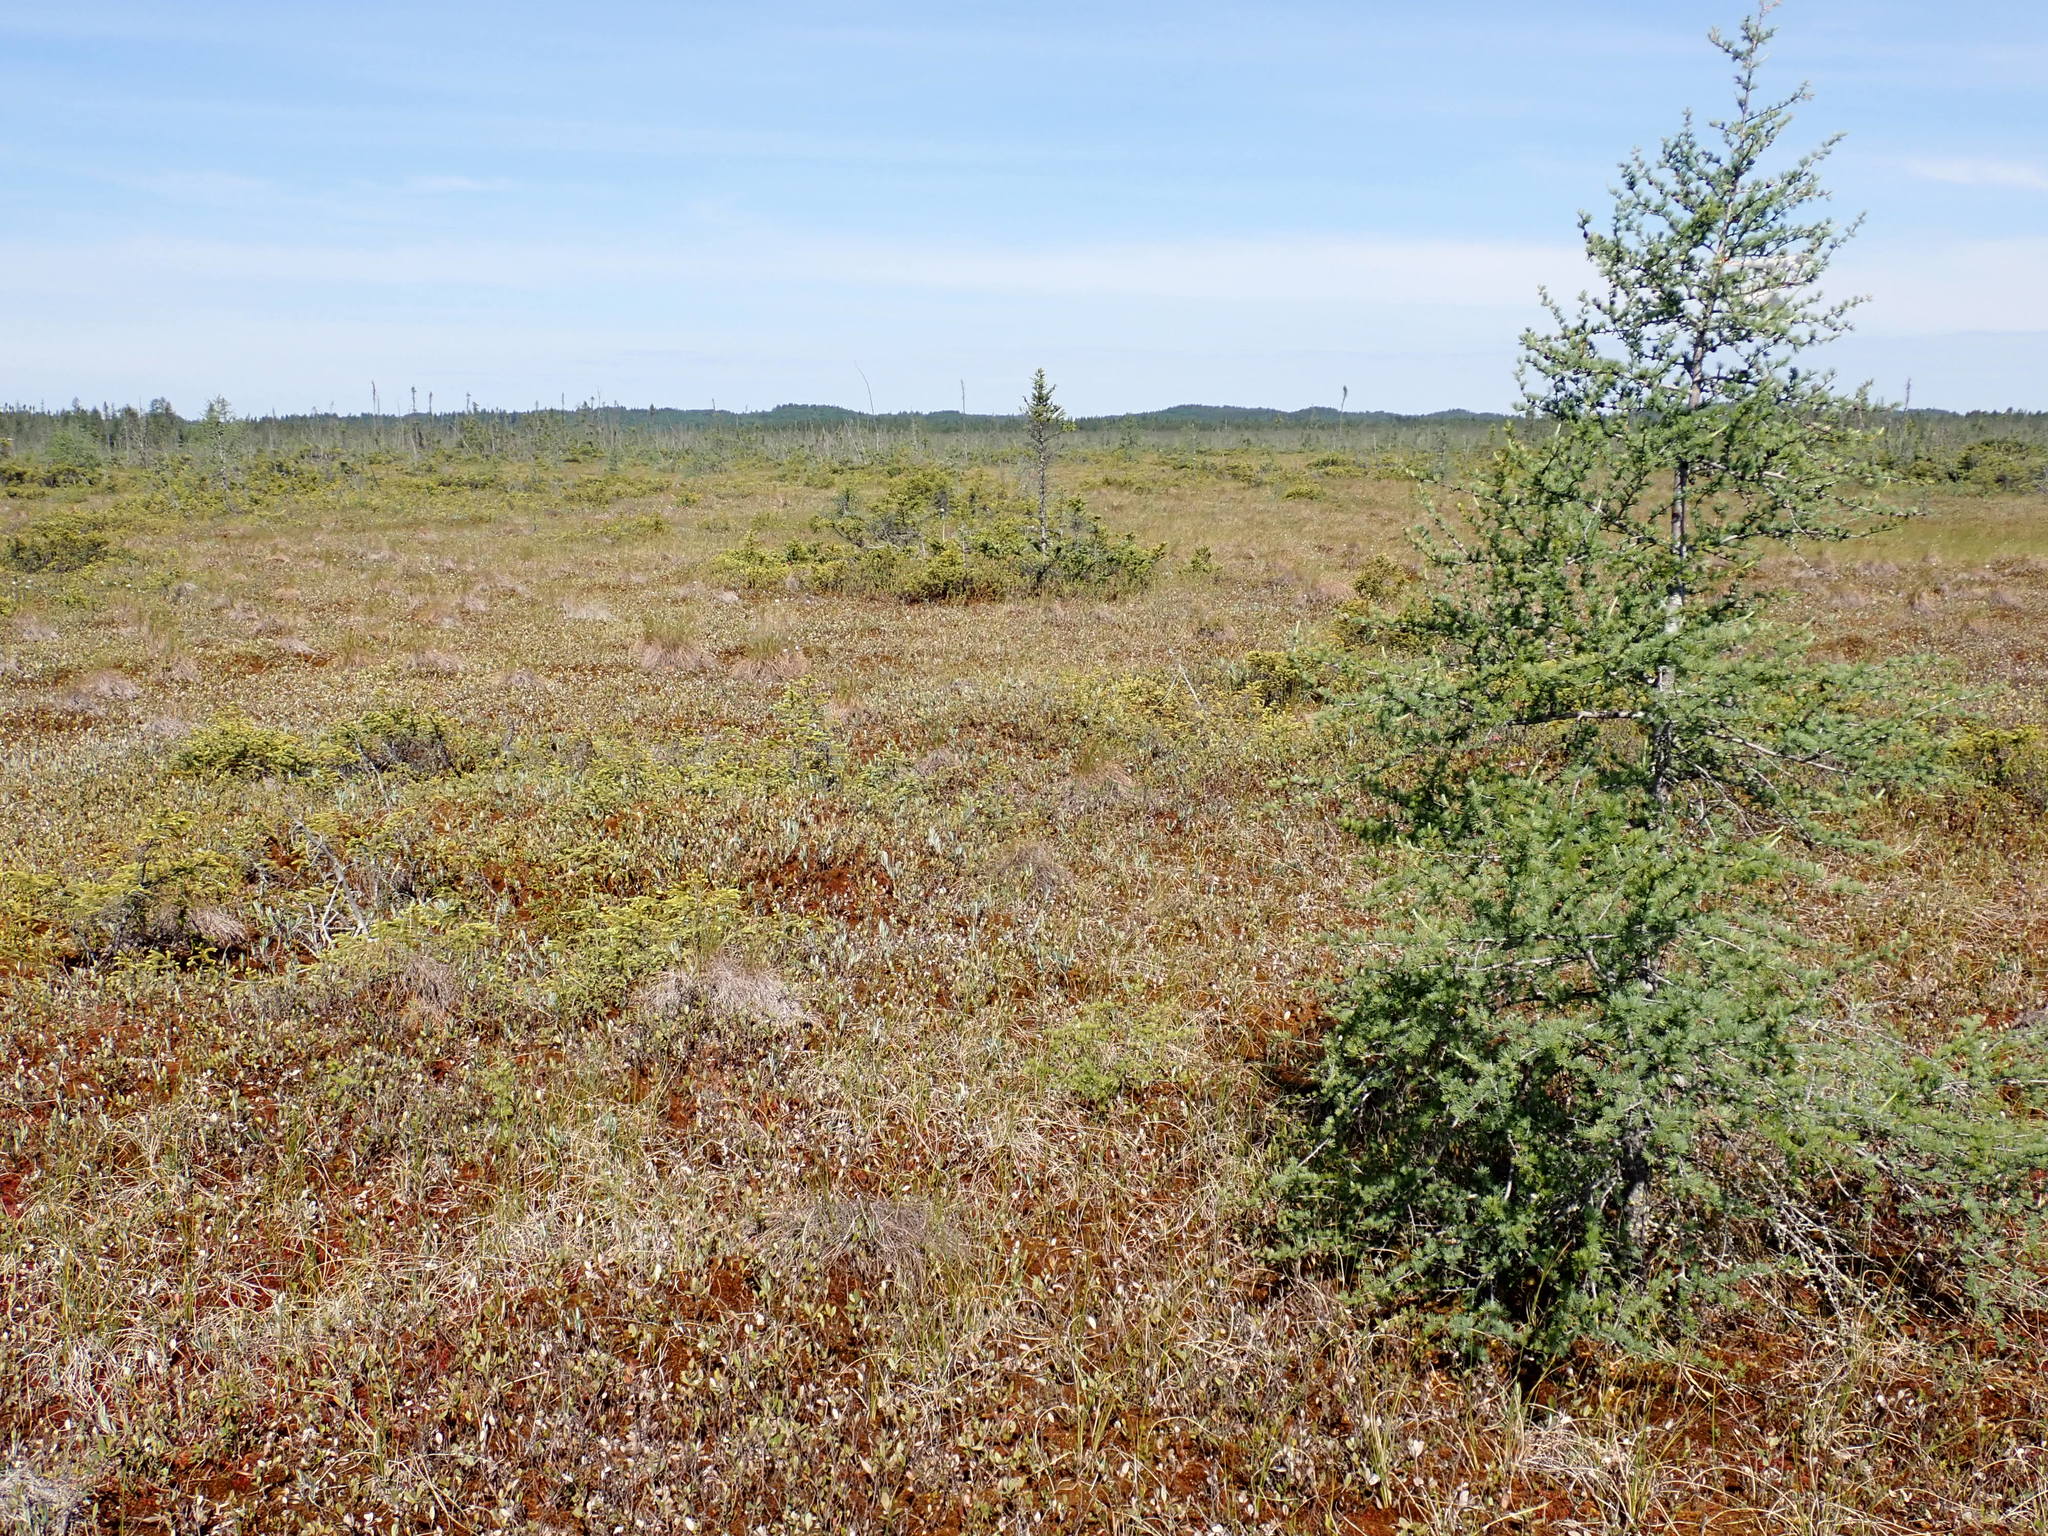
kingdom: Plantae
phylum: Tracheophyta
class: Pinopsida
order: Pinales
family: Pinaceae
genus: Larix
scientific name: Larix laricina
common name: American larch
